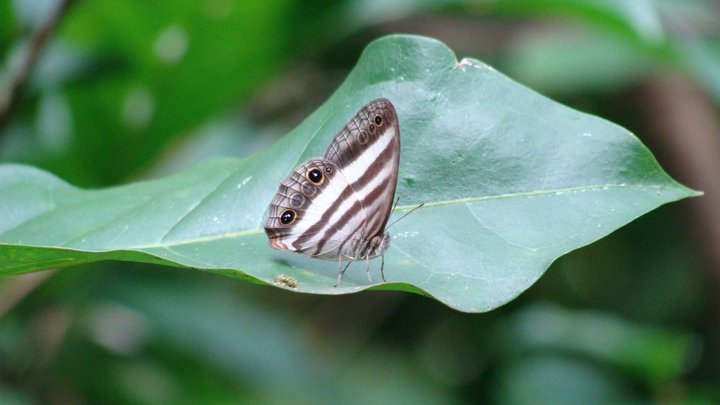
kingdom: Animalia
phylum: Arthropoda
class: Insecta
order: Lepidoptera
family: Nymphalidae
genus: Pareuptychia
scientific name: Pareuptychia hesione
